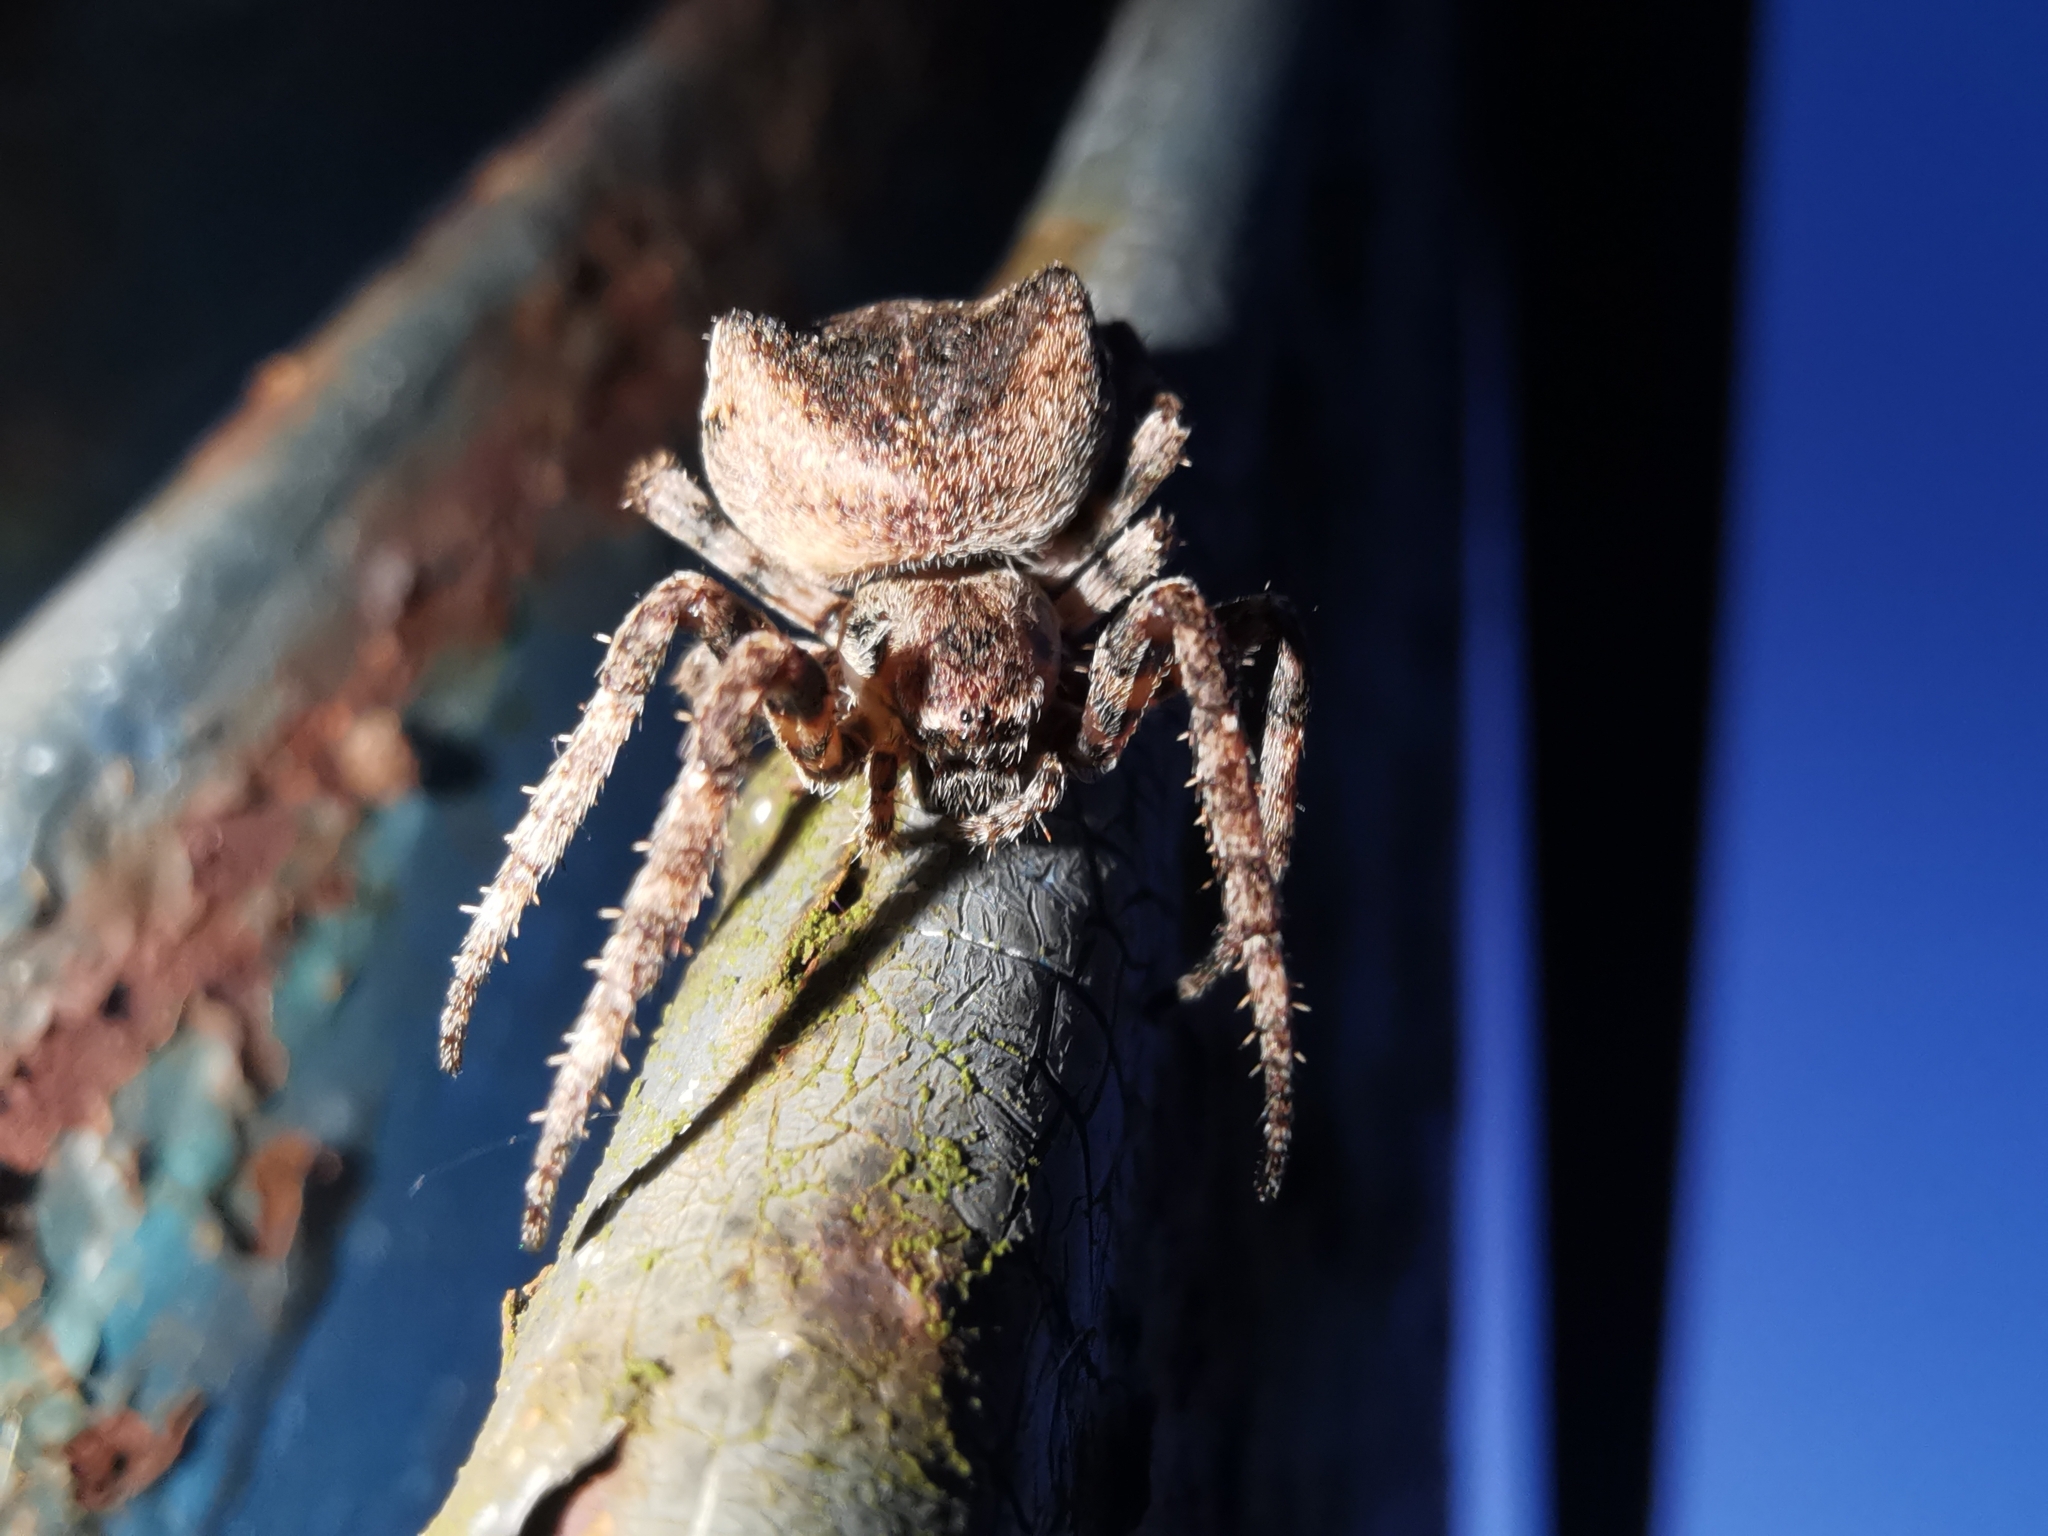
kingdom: Animalia
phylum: Arthropoda
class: Arachnida
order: Araneae
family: Araneidae
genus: Araneus
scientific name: Araneus angulatus
